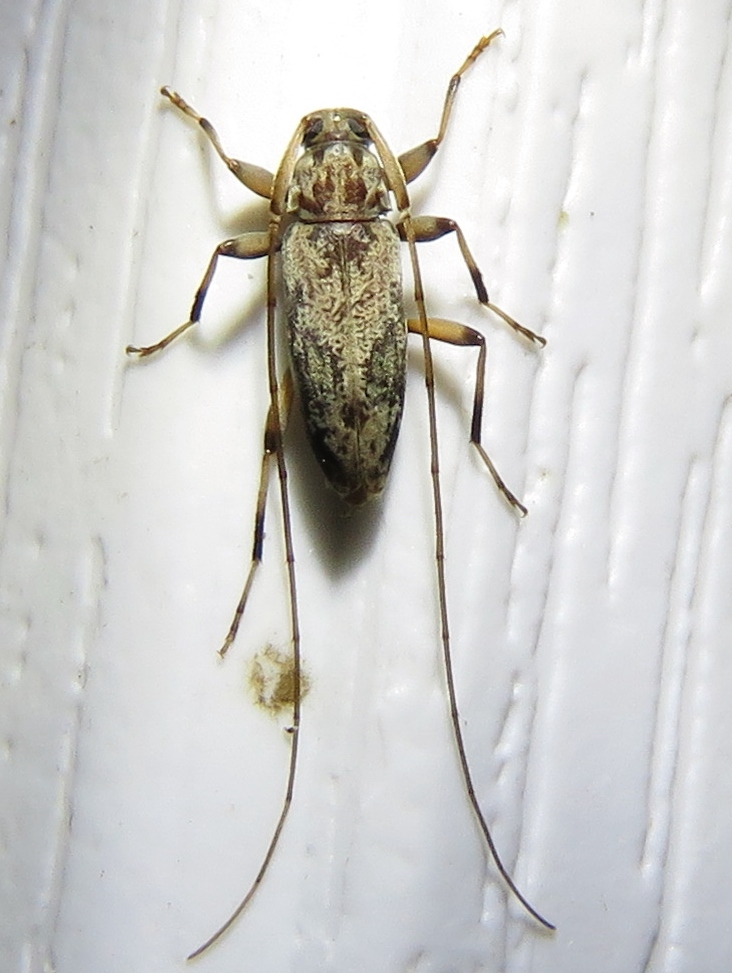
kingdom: Animalia
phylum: Arthropoda
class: Insecta
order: Coleoptera
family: Cerambycidae
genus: Lepturges
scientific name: Lepturges angulatus
